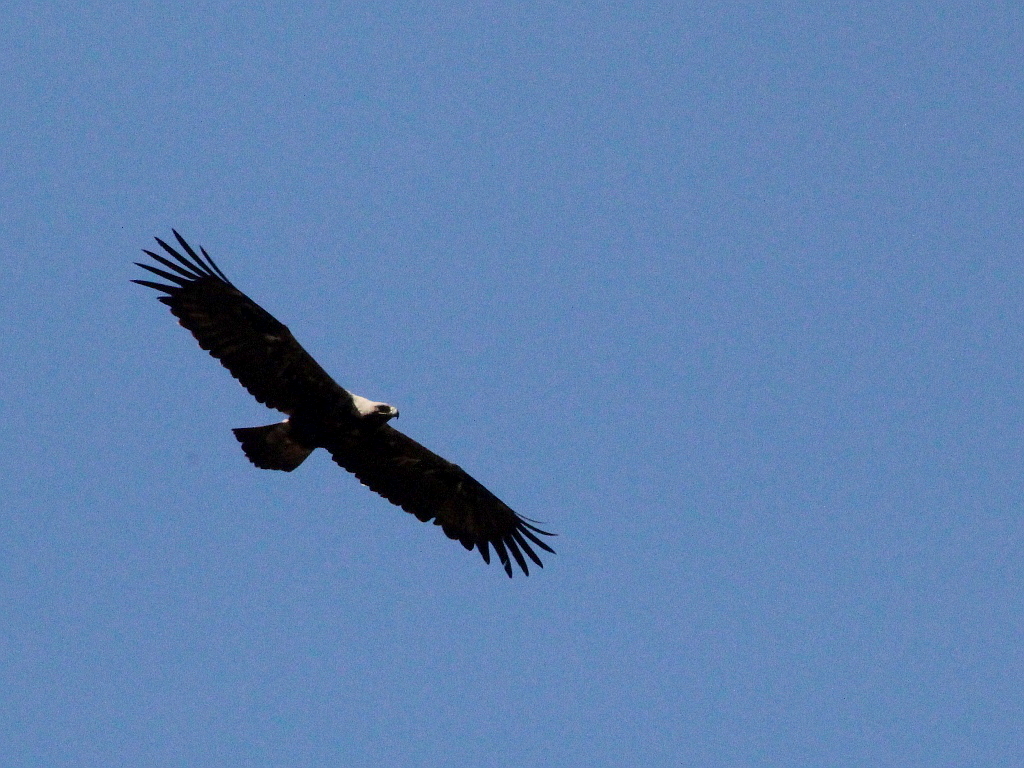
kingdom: Animalia
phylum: Chordata
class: Aves
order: Accipitriformes
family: Accipitridae
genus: Aquila
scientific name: Aquila heliaca
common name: Eastern imperial eagle
